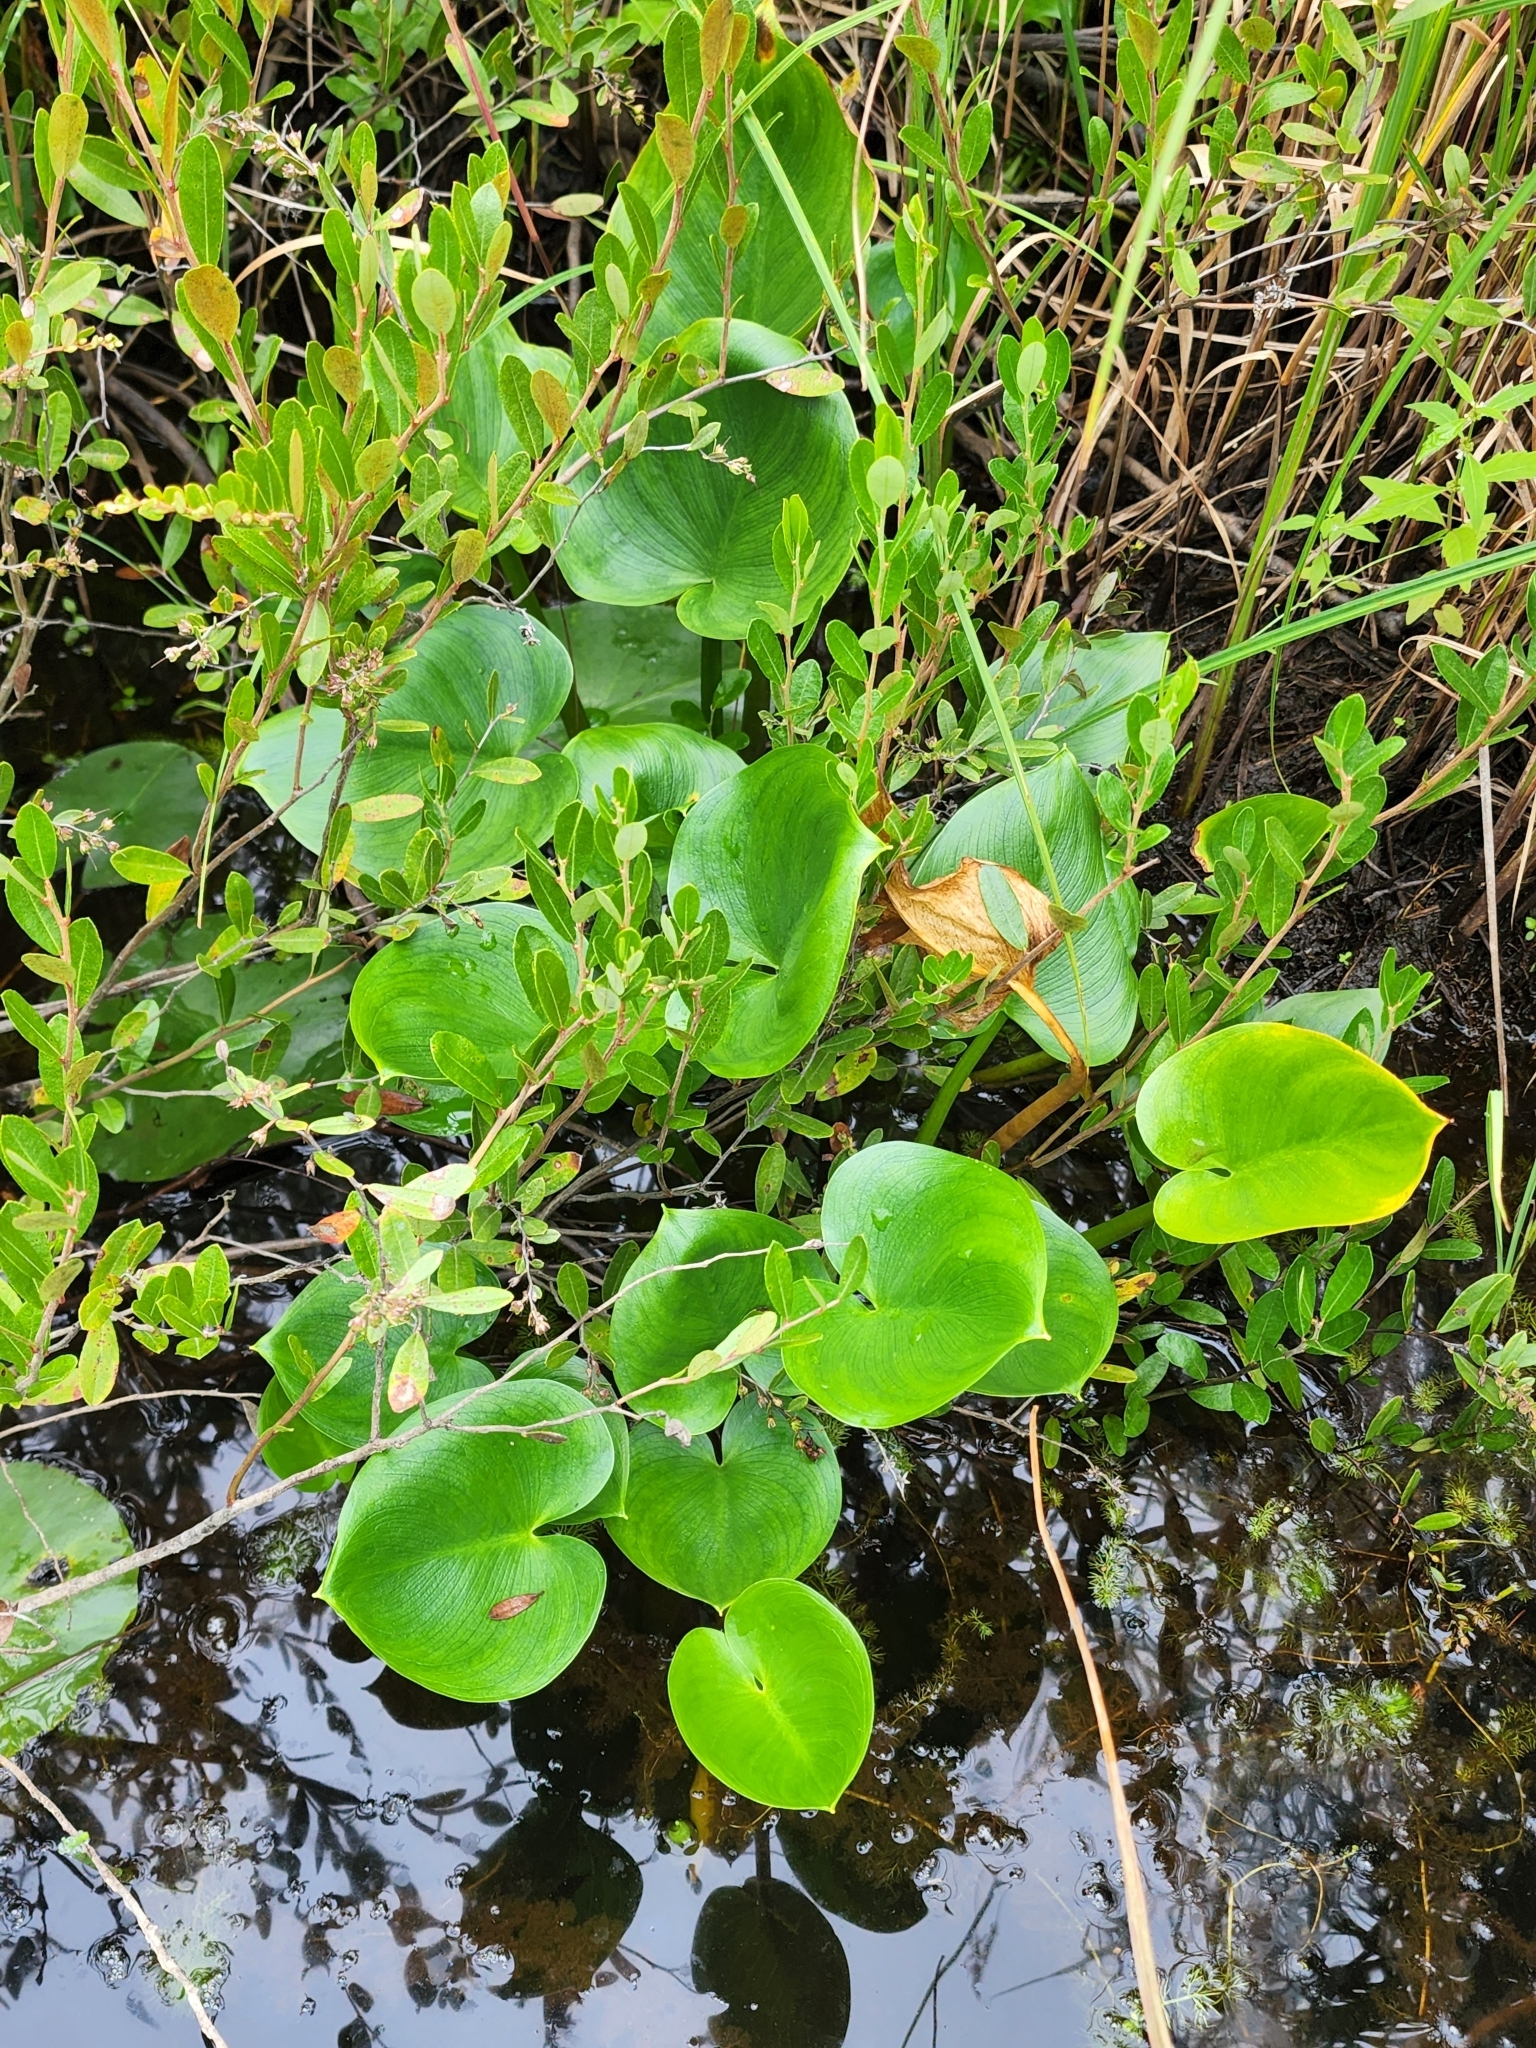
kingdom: Plantae
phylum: Tracheophyta
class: Liliopsida
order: Alismatales
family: Araceae
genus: Calla
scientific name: Calla palustris
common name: Bog arum
